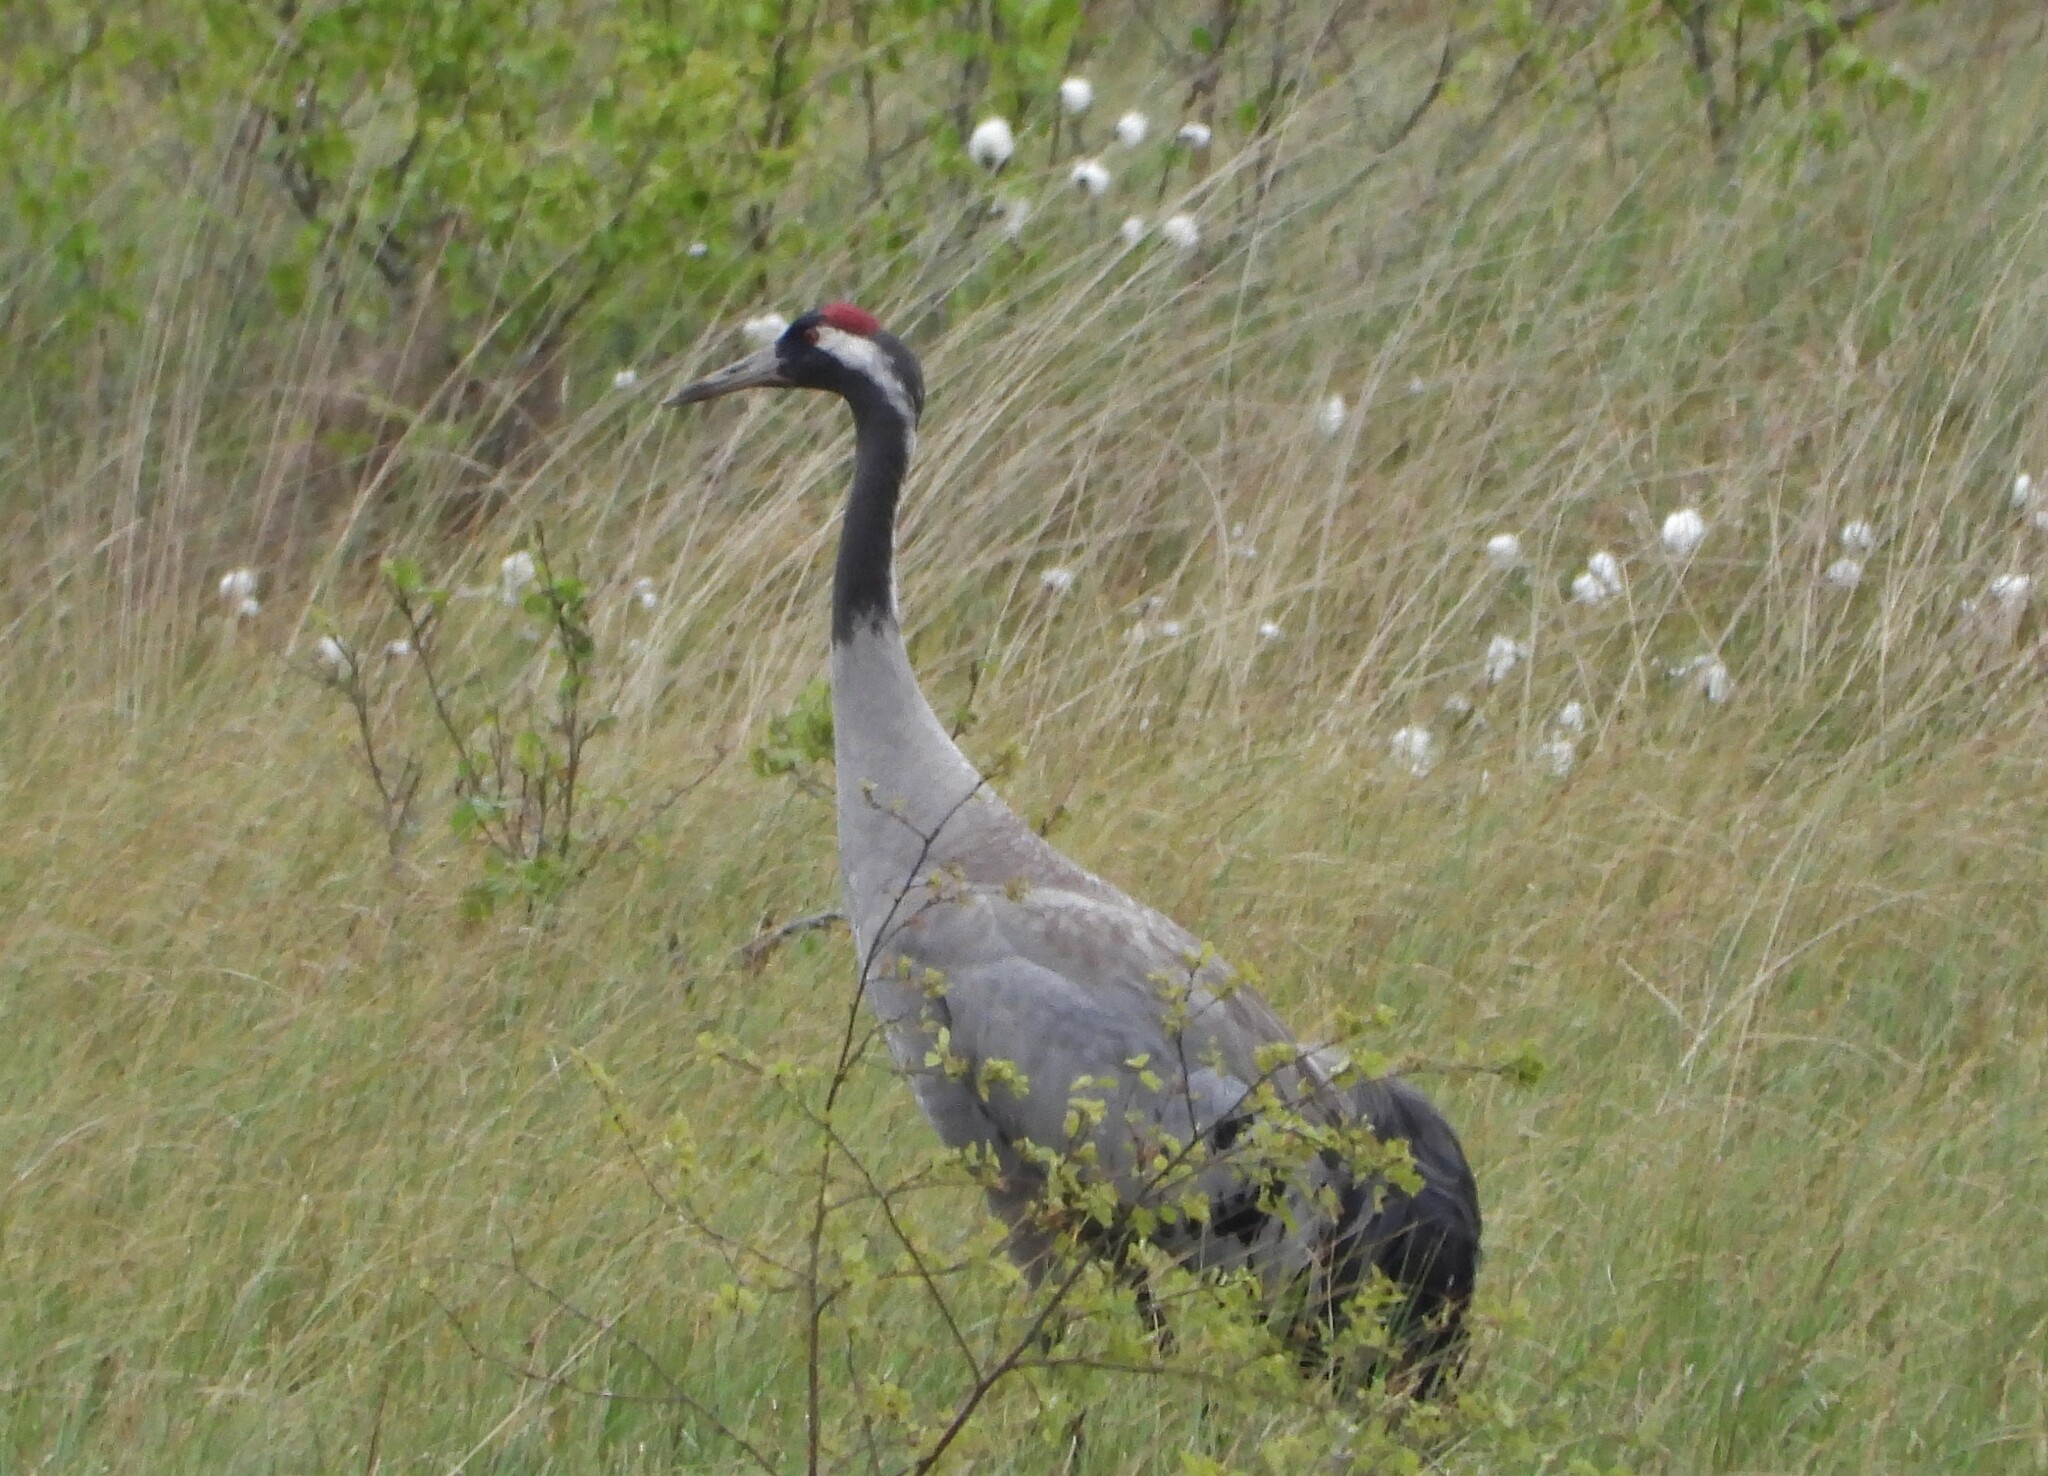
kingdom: Animalia
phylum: Chordata
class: Aves
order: Gruiformes
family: Gruidae
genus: Grus
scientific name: Grus grus
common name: Common crane
